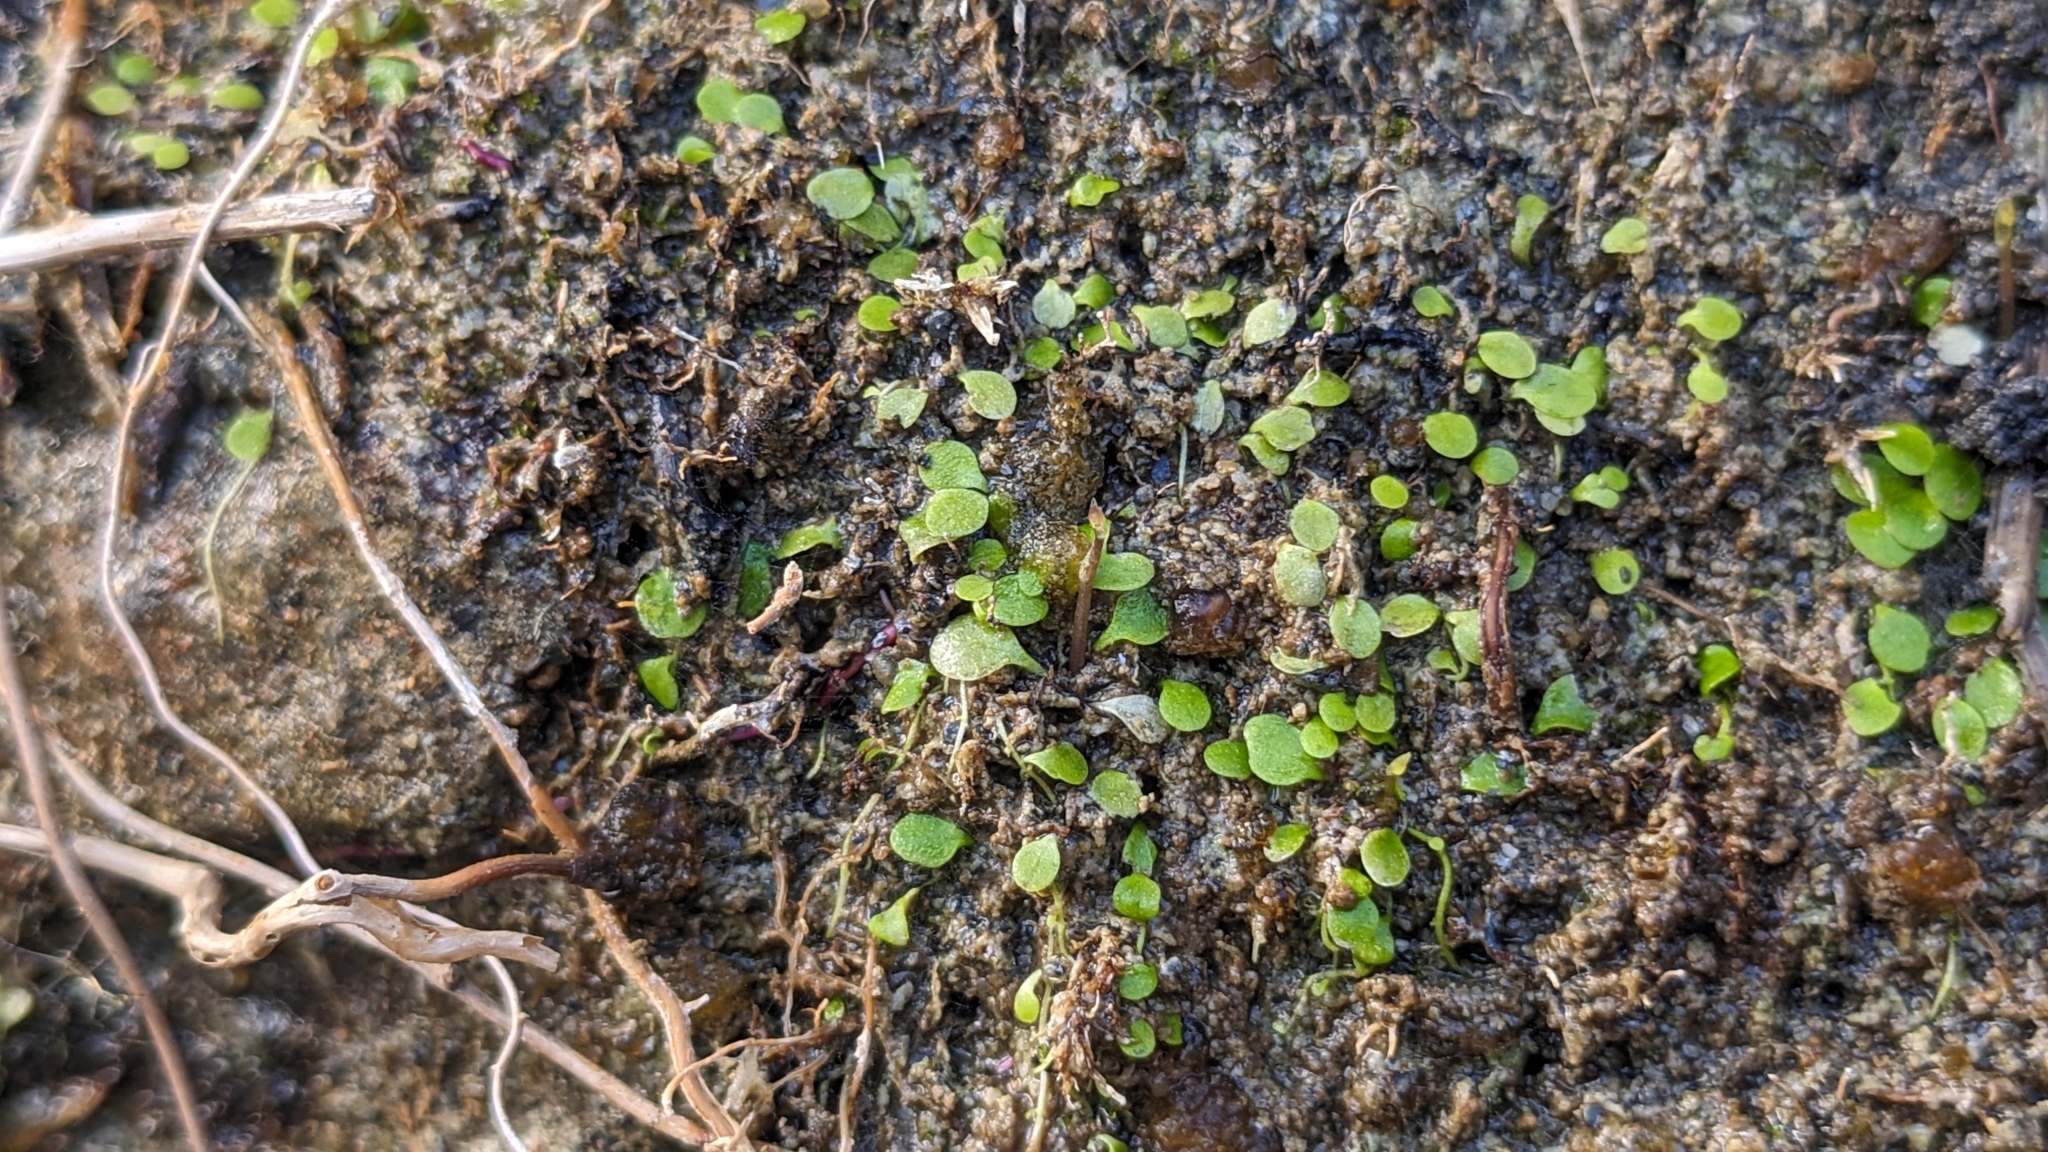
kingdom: Plantae
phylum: Tracheophyta
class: Magnoliopsida
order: Lamiales
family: Lentibulariaceae
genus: Utricularia
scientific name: Utricularia striatula
